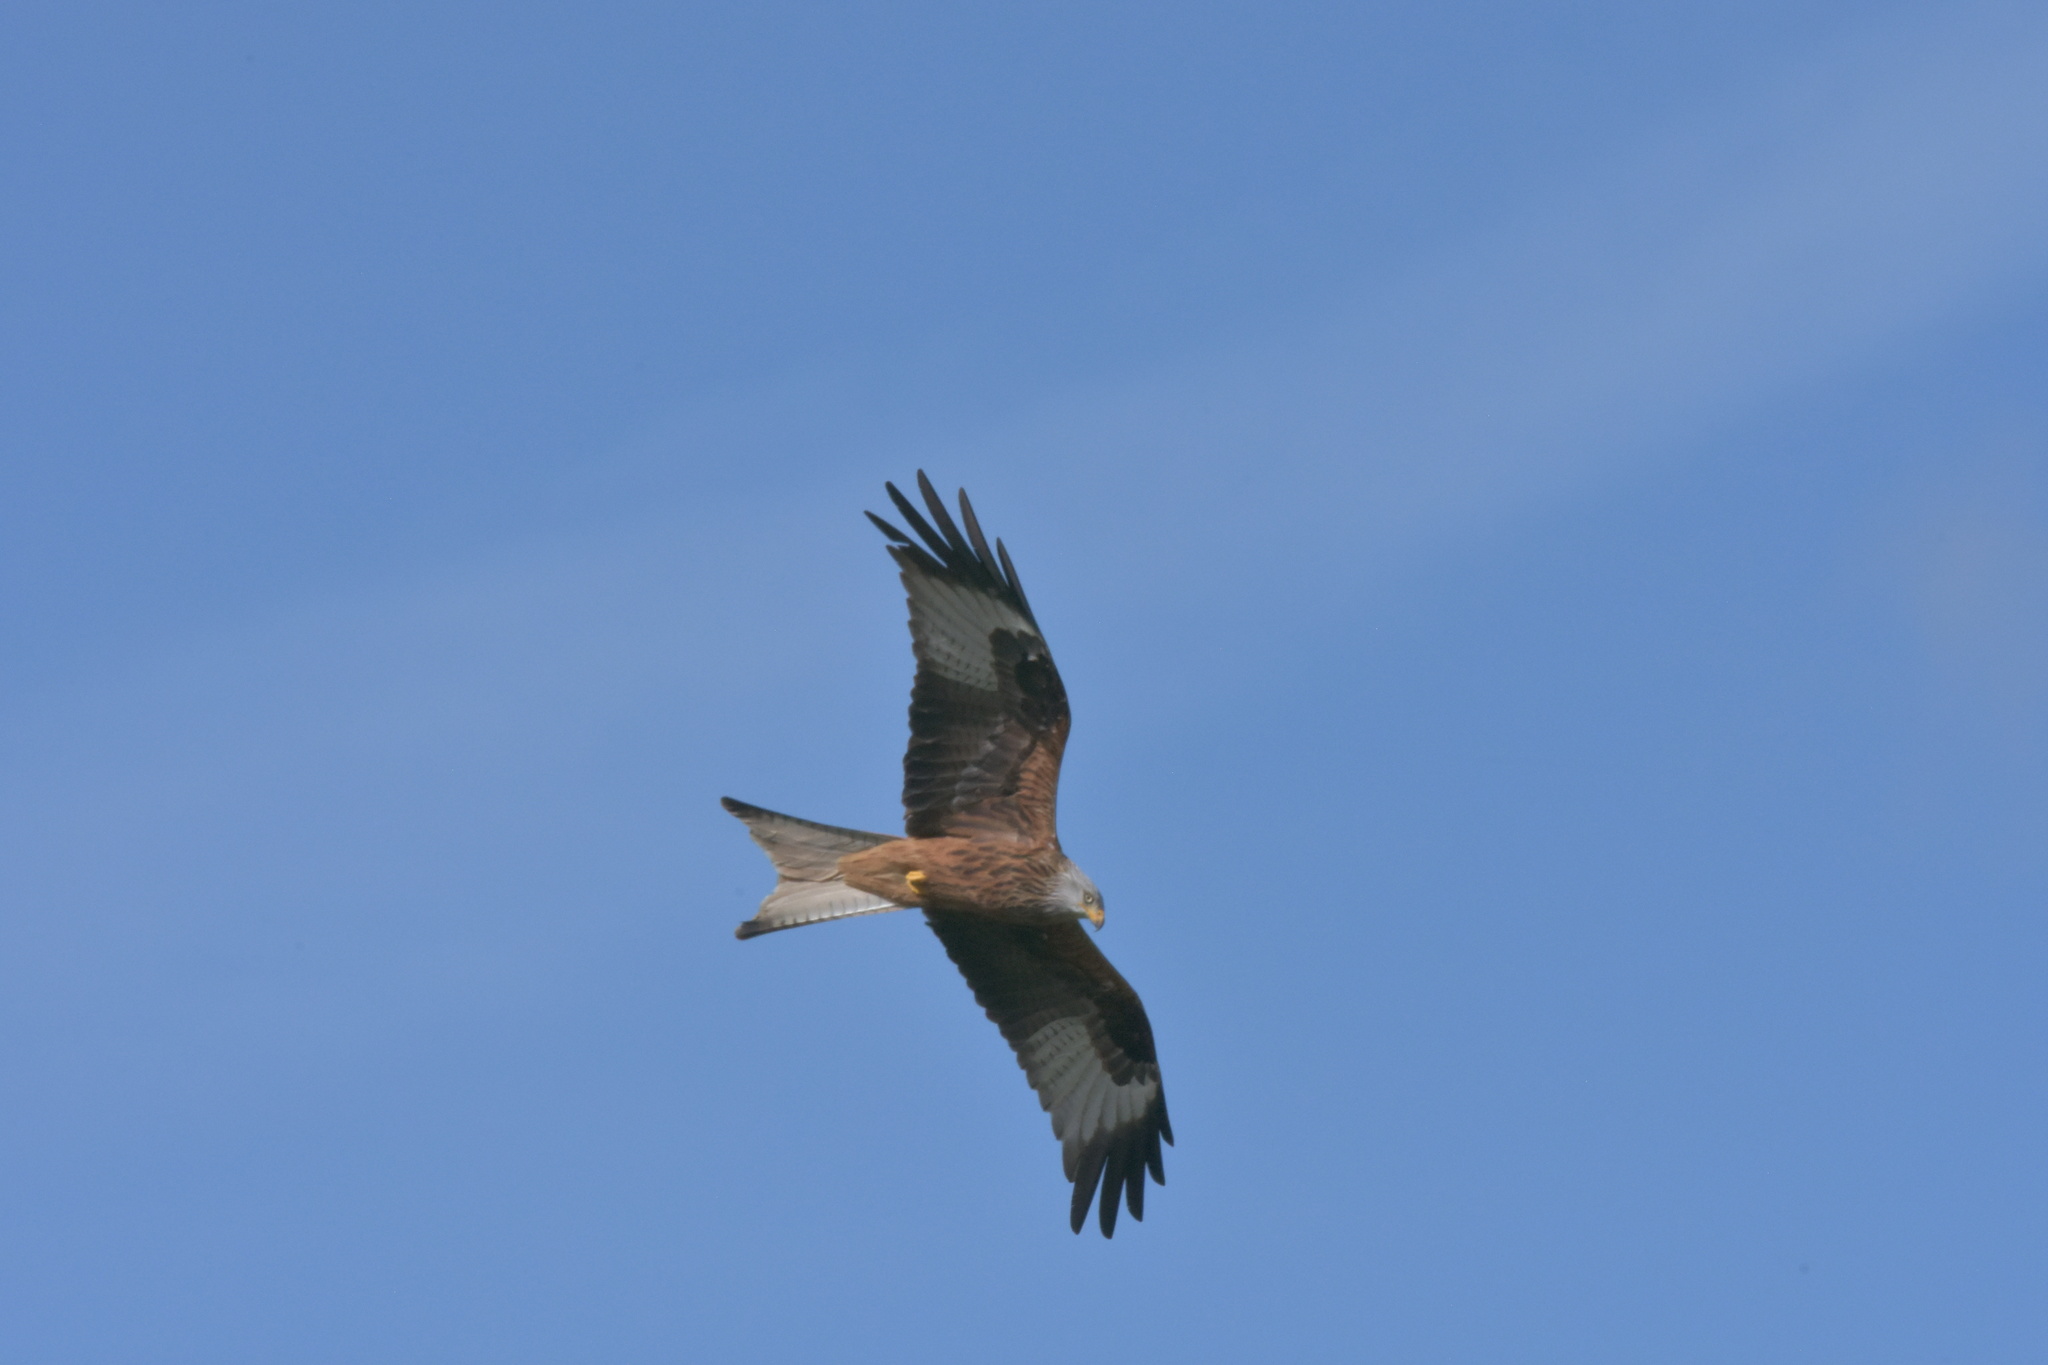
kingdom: Animalia
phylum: Chordata
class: Aves
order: Accipitriformes
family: Accipitridae
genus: Milvus
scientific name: Milvus milvus
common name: Red kite
